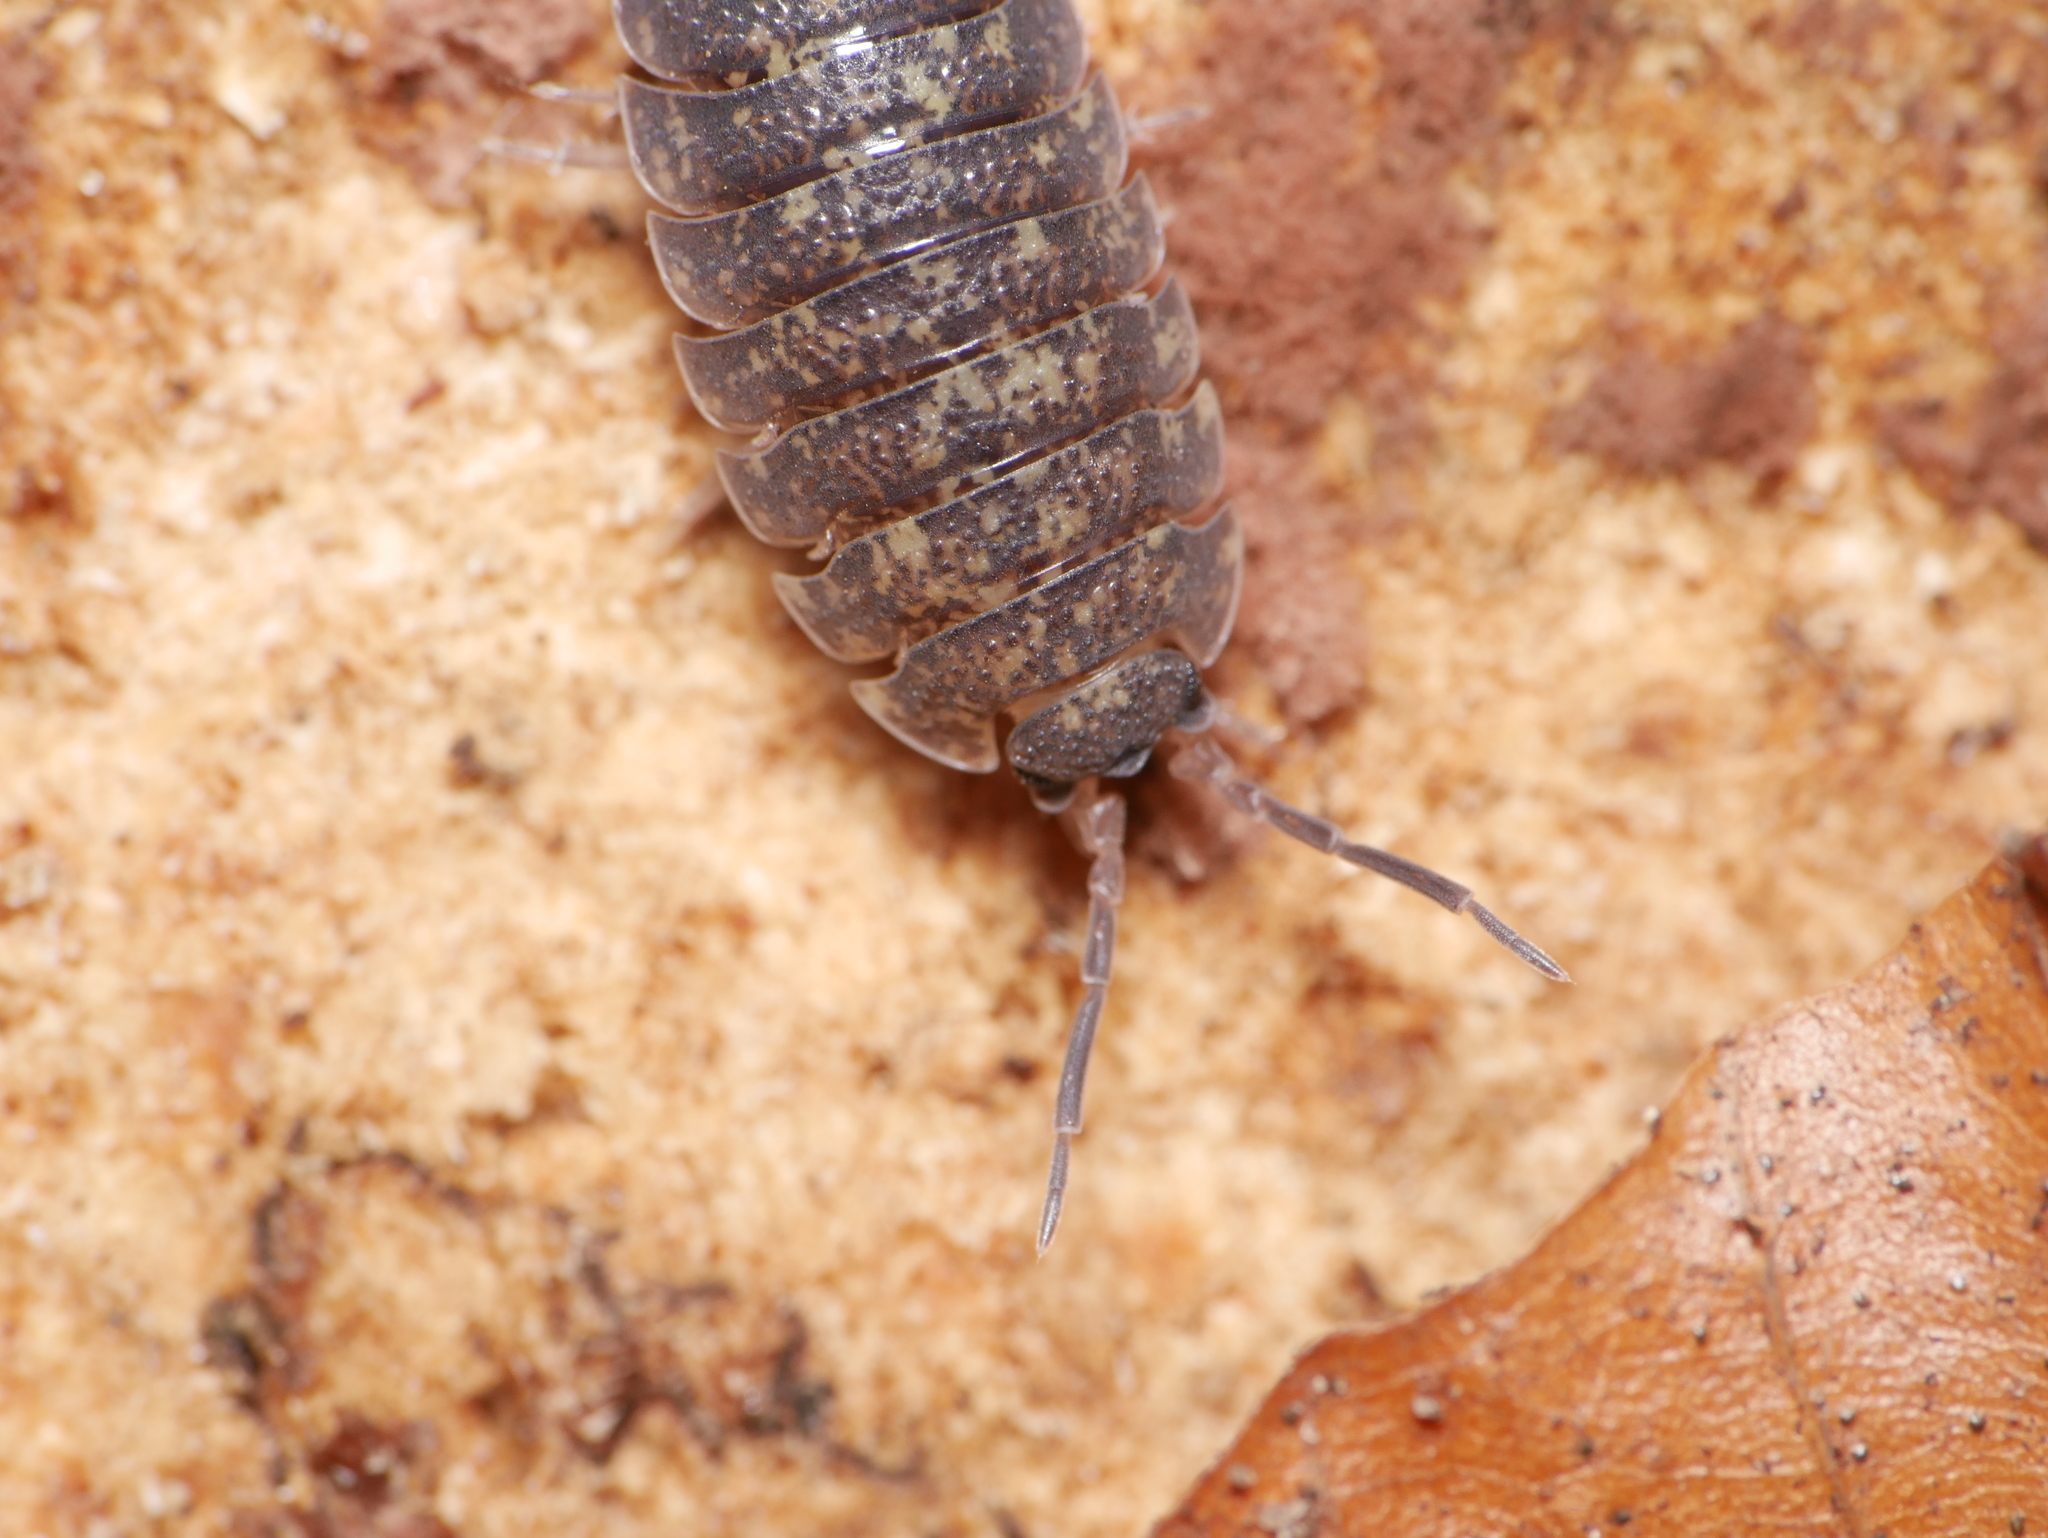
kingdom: Animalia
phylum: Arthropoda
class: Malacostraca
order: Isopoda
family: Porcellionidae
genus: Porcellio
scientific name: Porcellio scaber
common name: Common rough woodlouse
